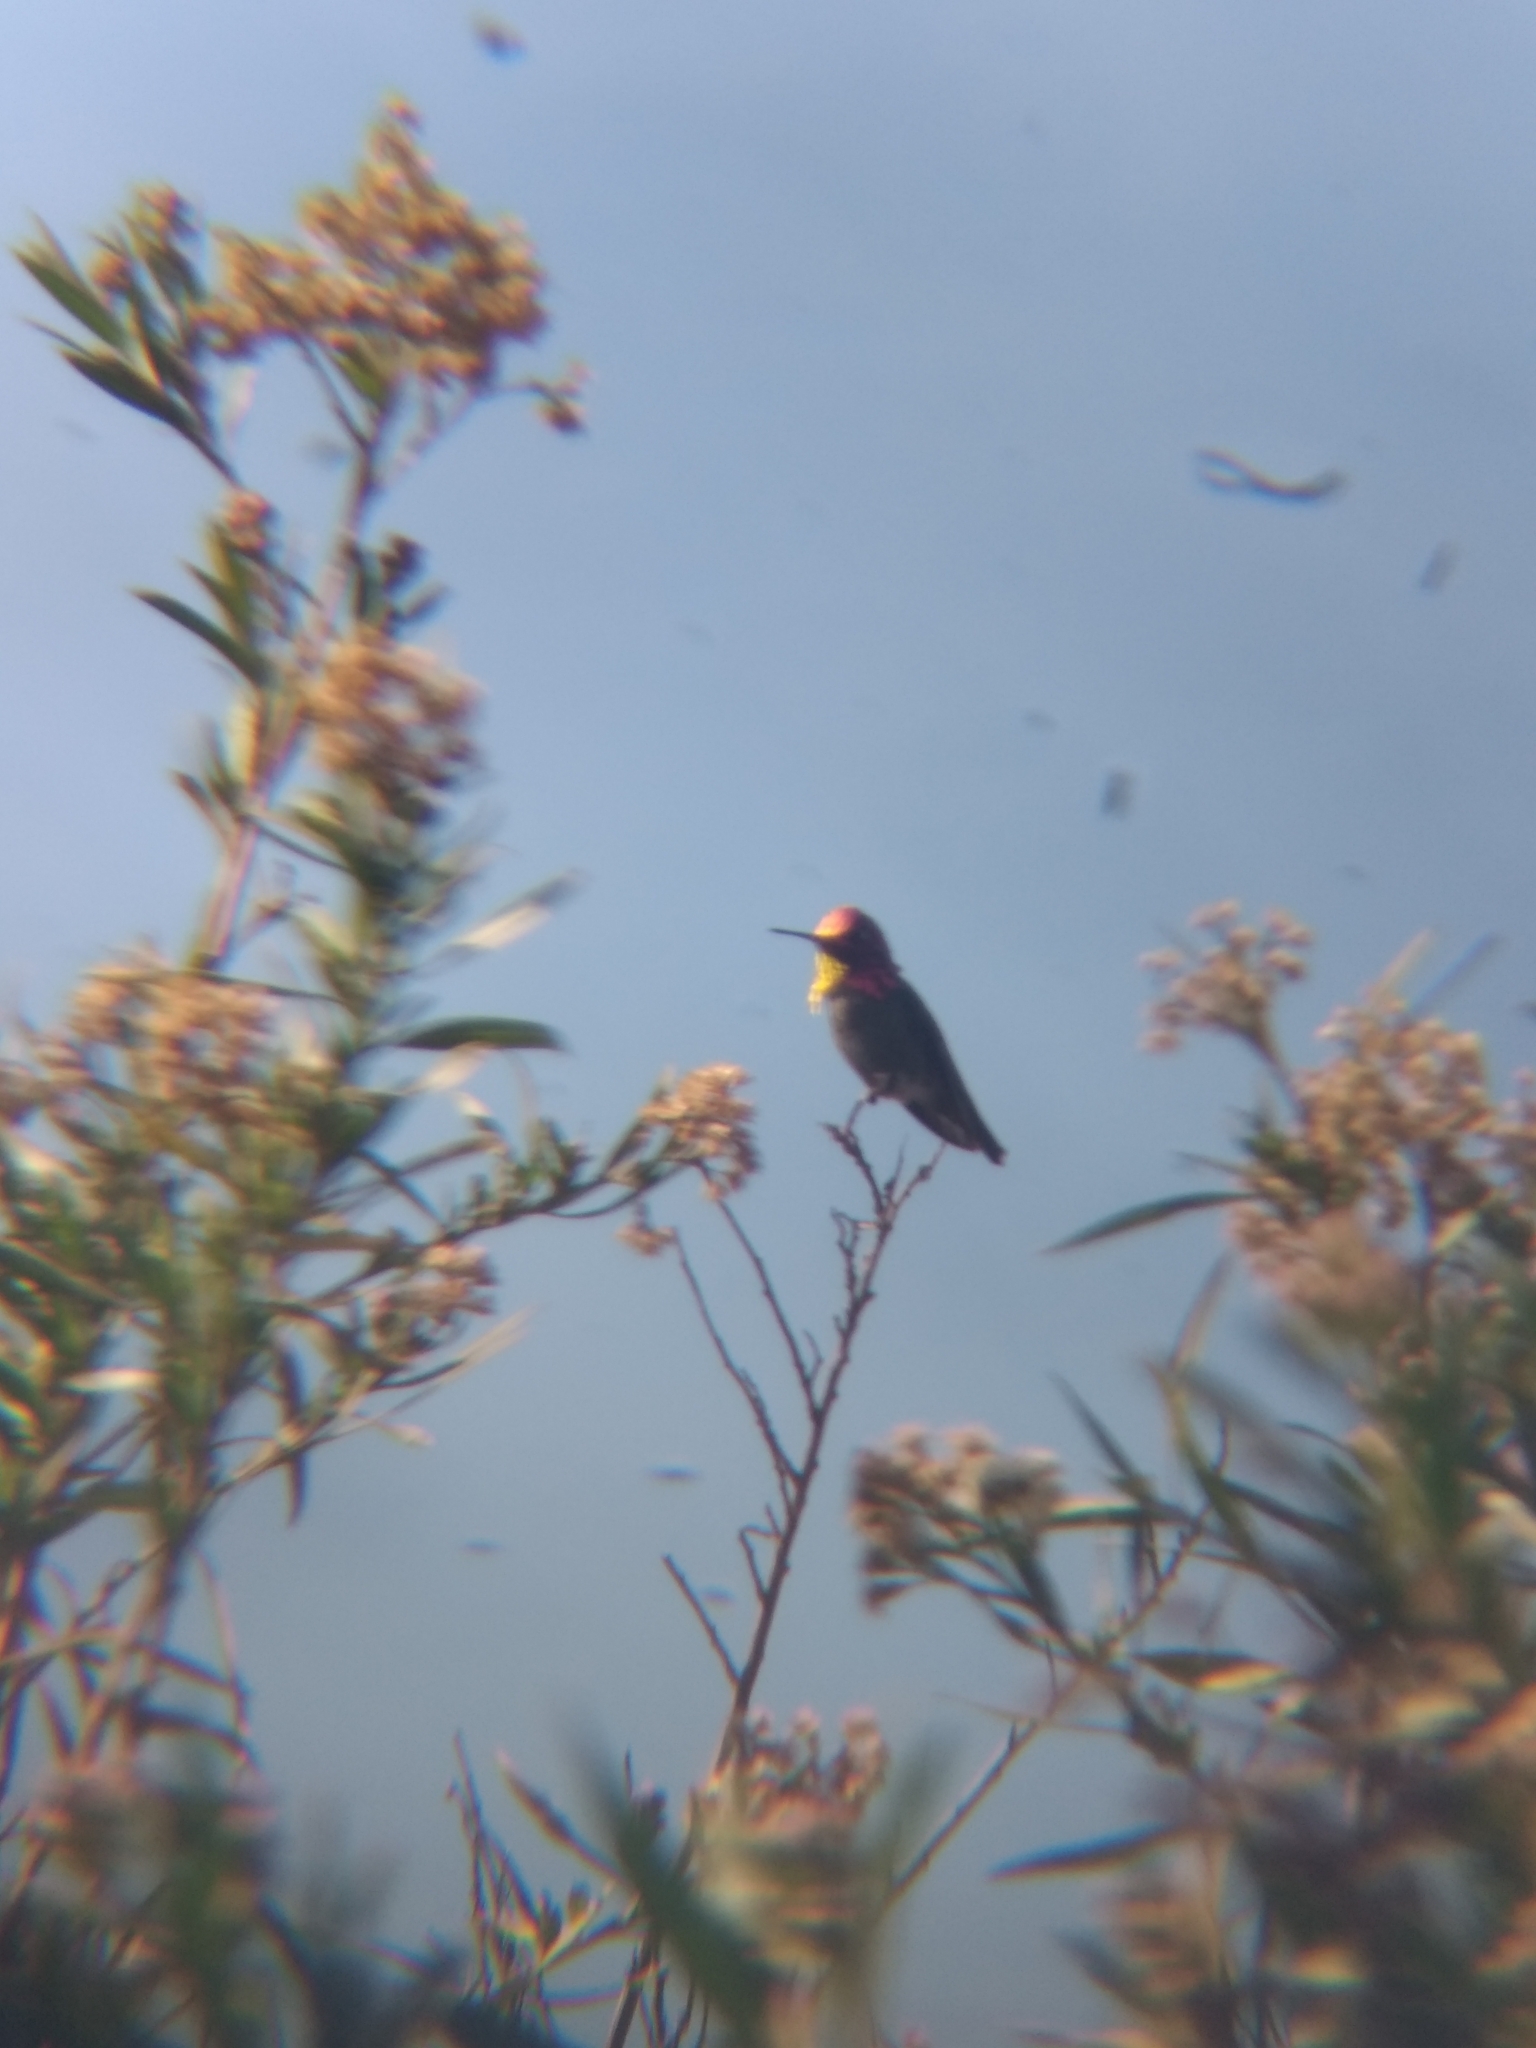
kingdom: Animalia
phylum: Chordata
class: Aves
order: Apodiformes
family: Trochilidae
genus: Calypte
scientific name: Calypte anna
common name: Anna's hummingbird
